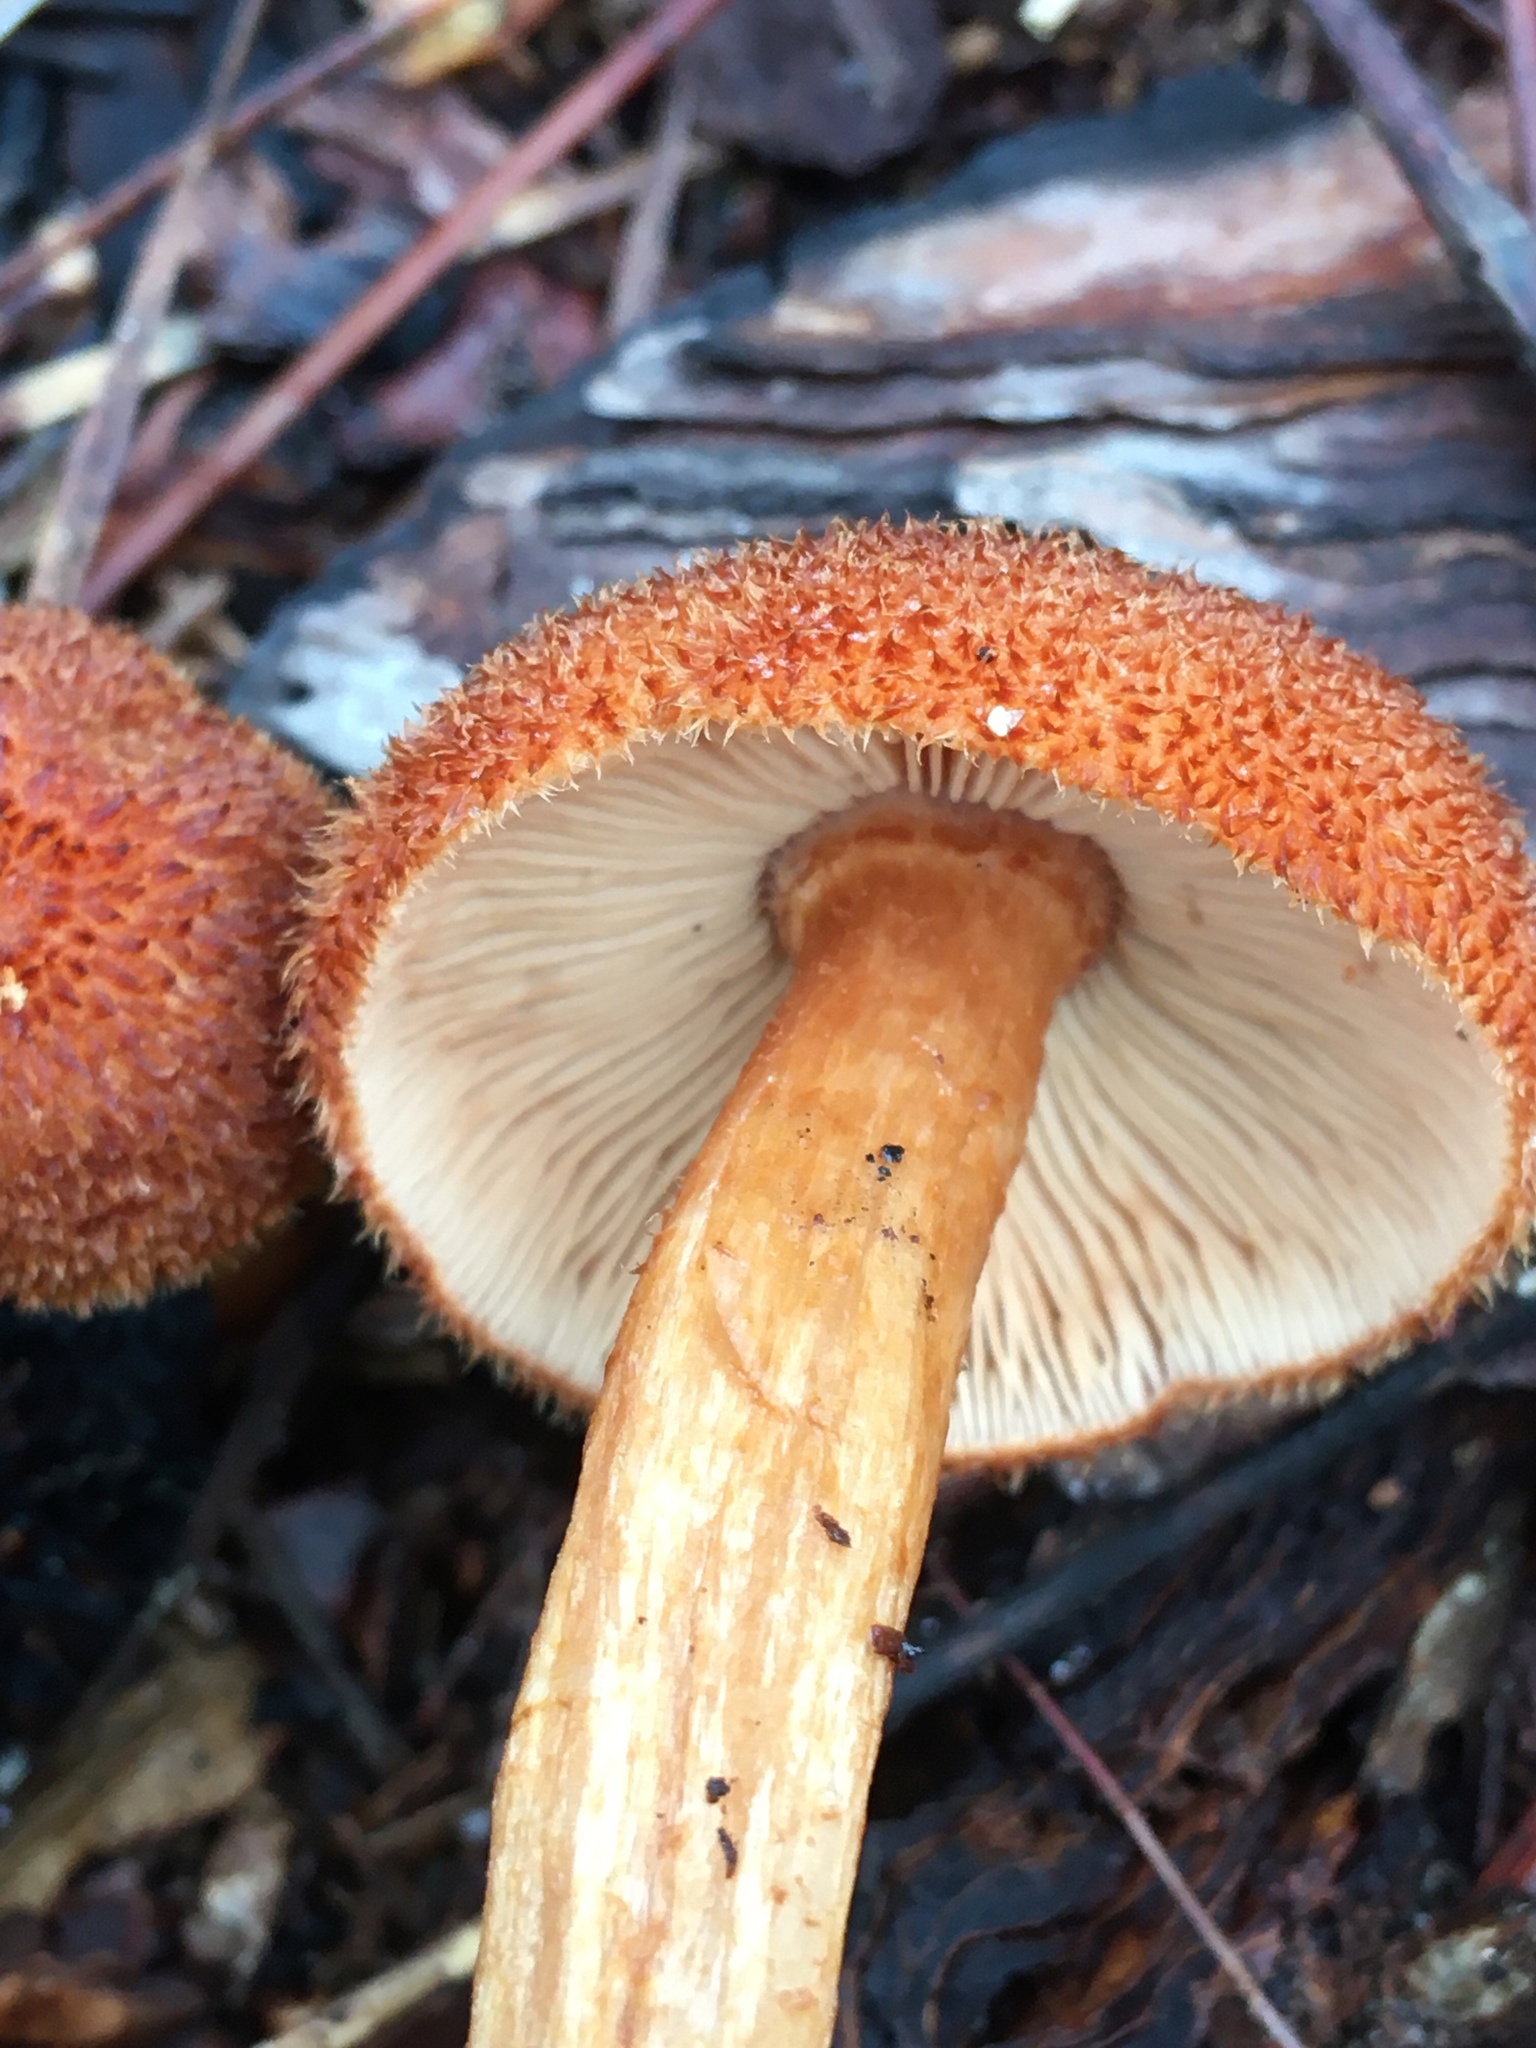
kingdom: Fungi
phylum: Basidiomycota
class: Agaricomycetes
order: Agaricales
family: Tricholomataceae
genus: Tricholomopsis
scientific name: Tricholomopsis formosa
